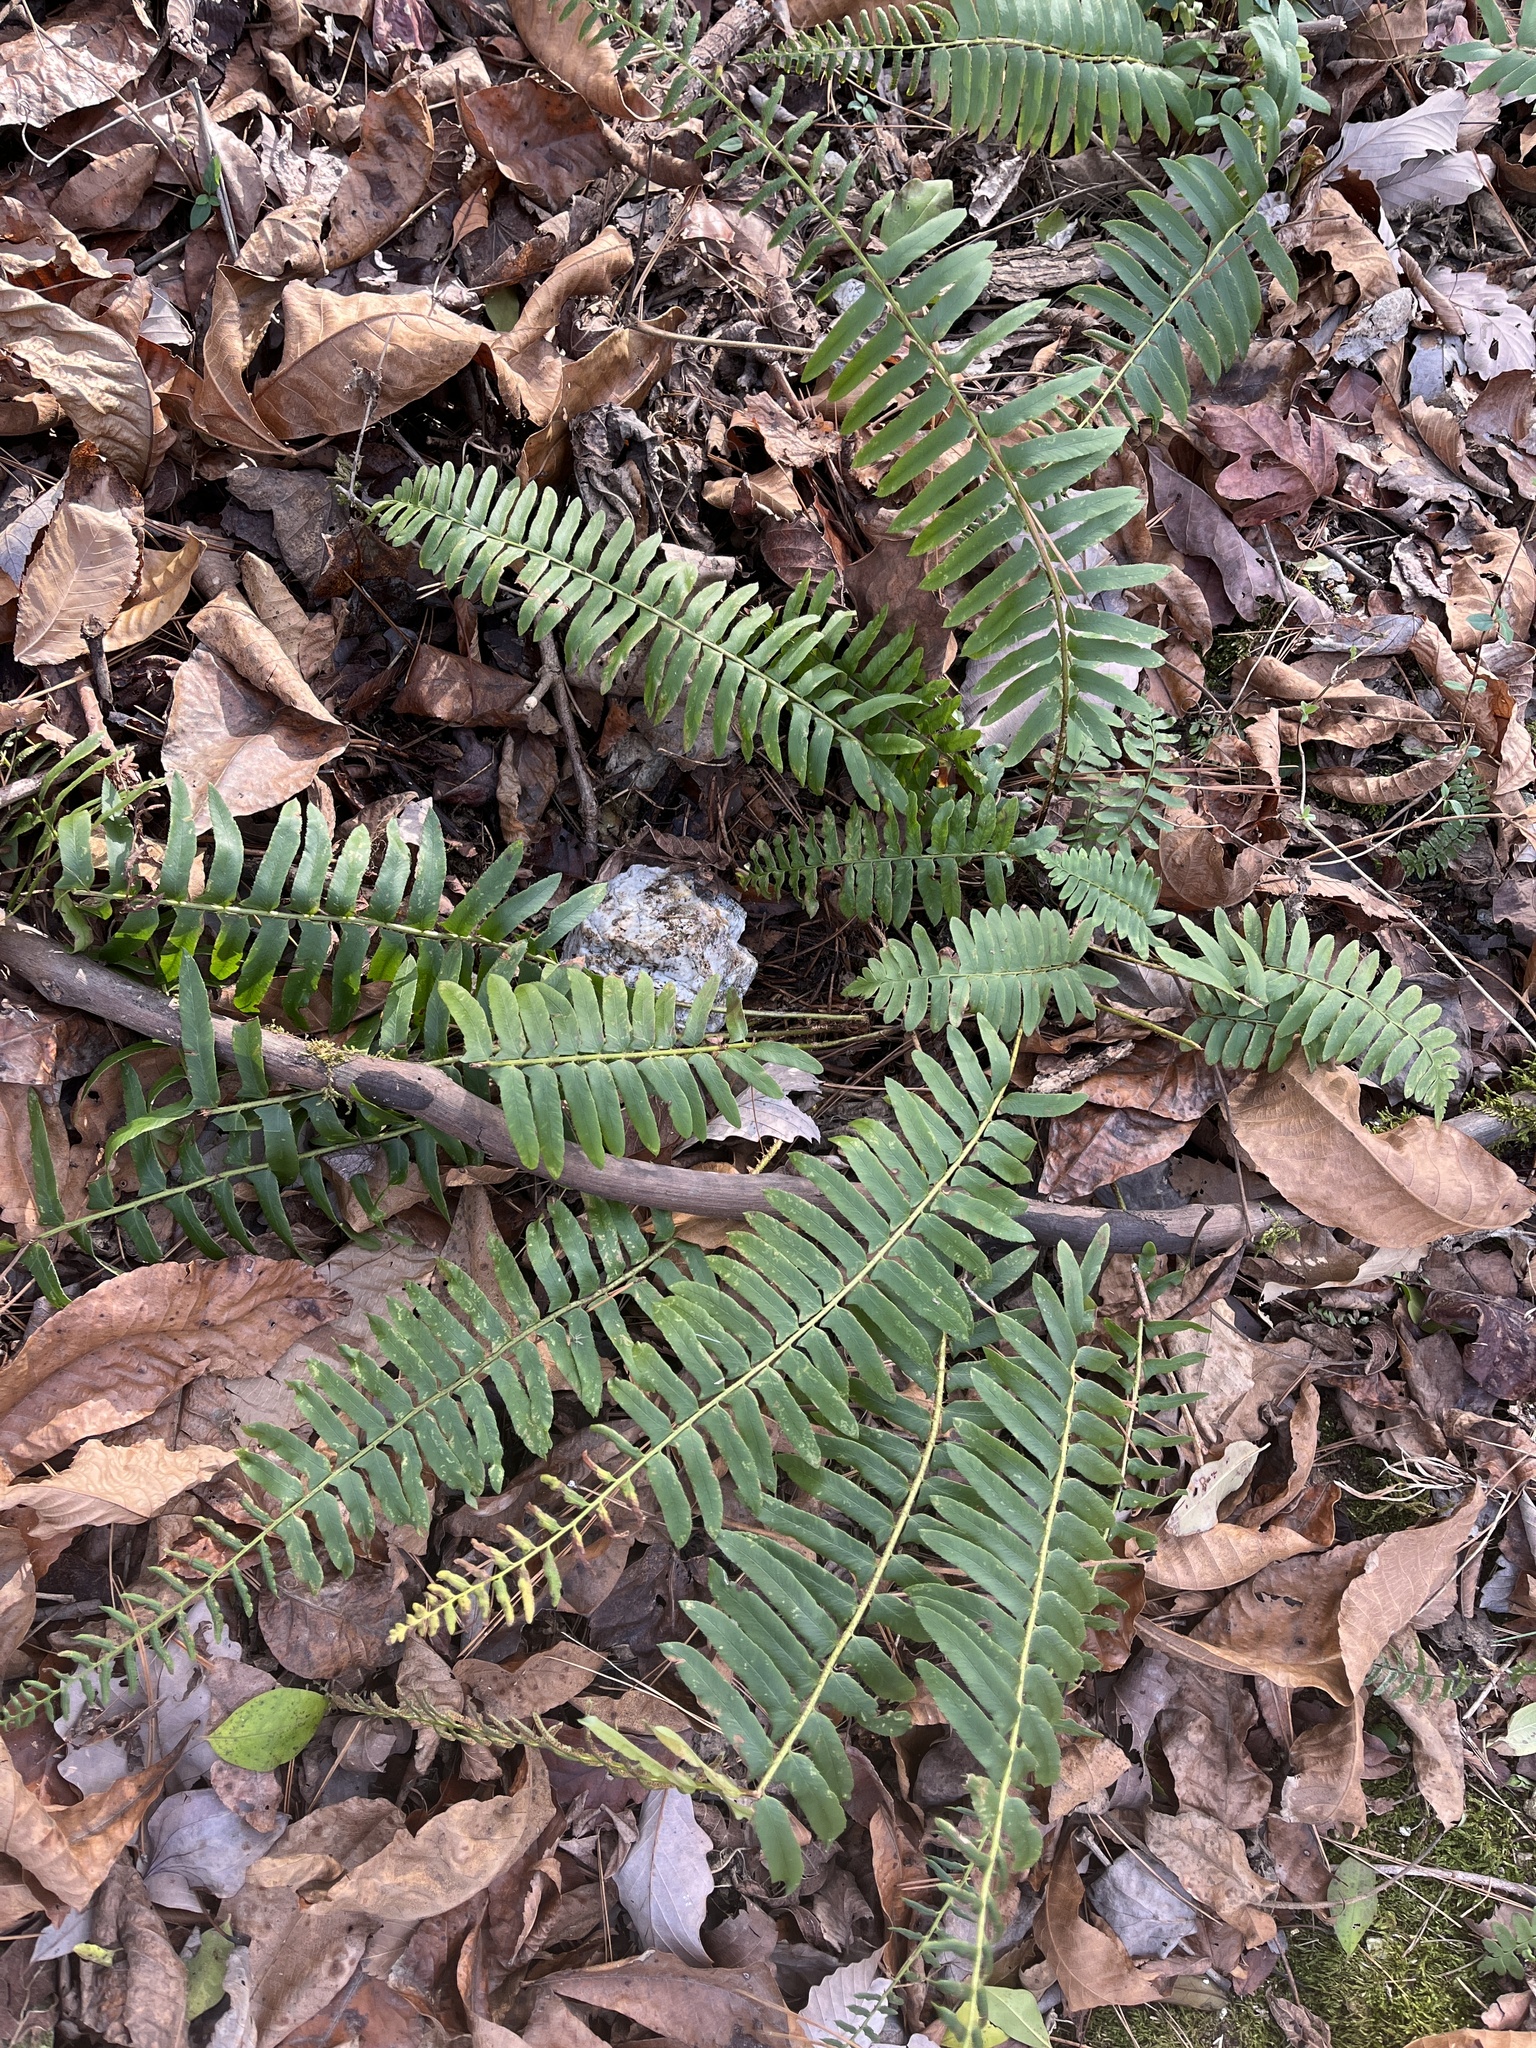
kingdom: Plantae
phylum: Tracheophyta
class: Polypodiopsida
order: Polypodiales
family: Dryopteridaceae
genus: Polystichum
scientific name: Polystichum acrostichoides
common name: Christmas fern
